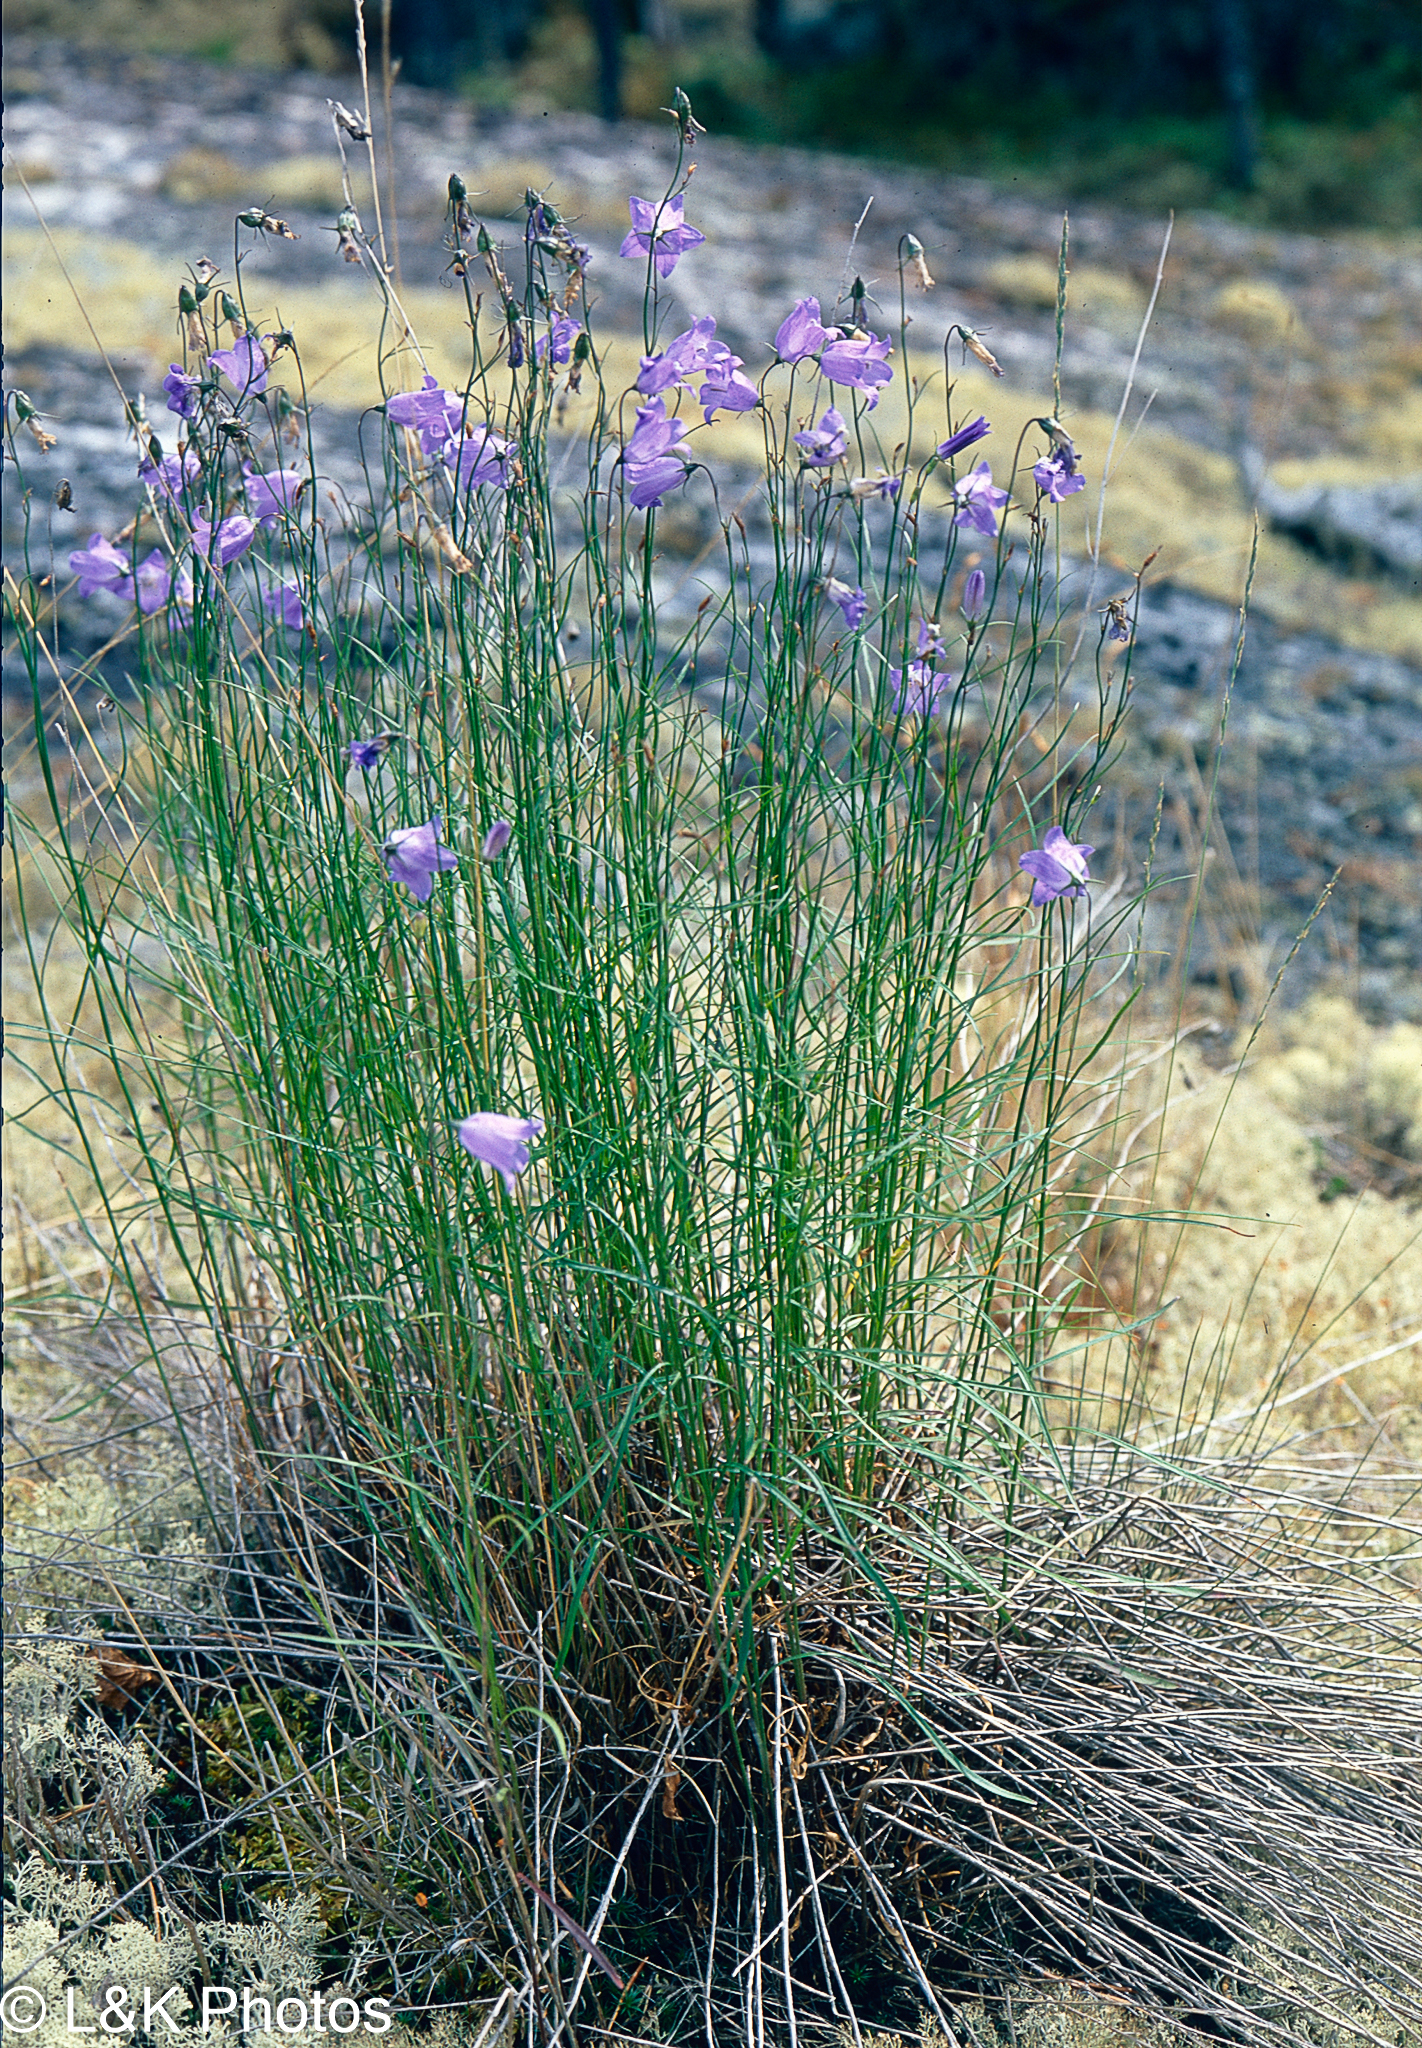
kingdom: Plantae
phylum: Tracheophyta
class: Magnoliopsida
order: Asterales
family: Campanulaceae
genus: Campanula
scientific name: Campanula alaskana
